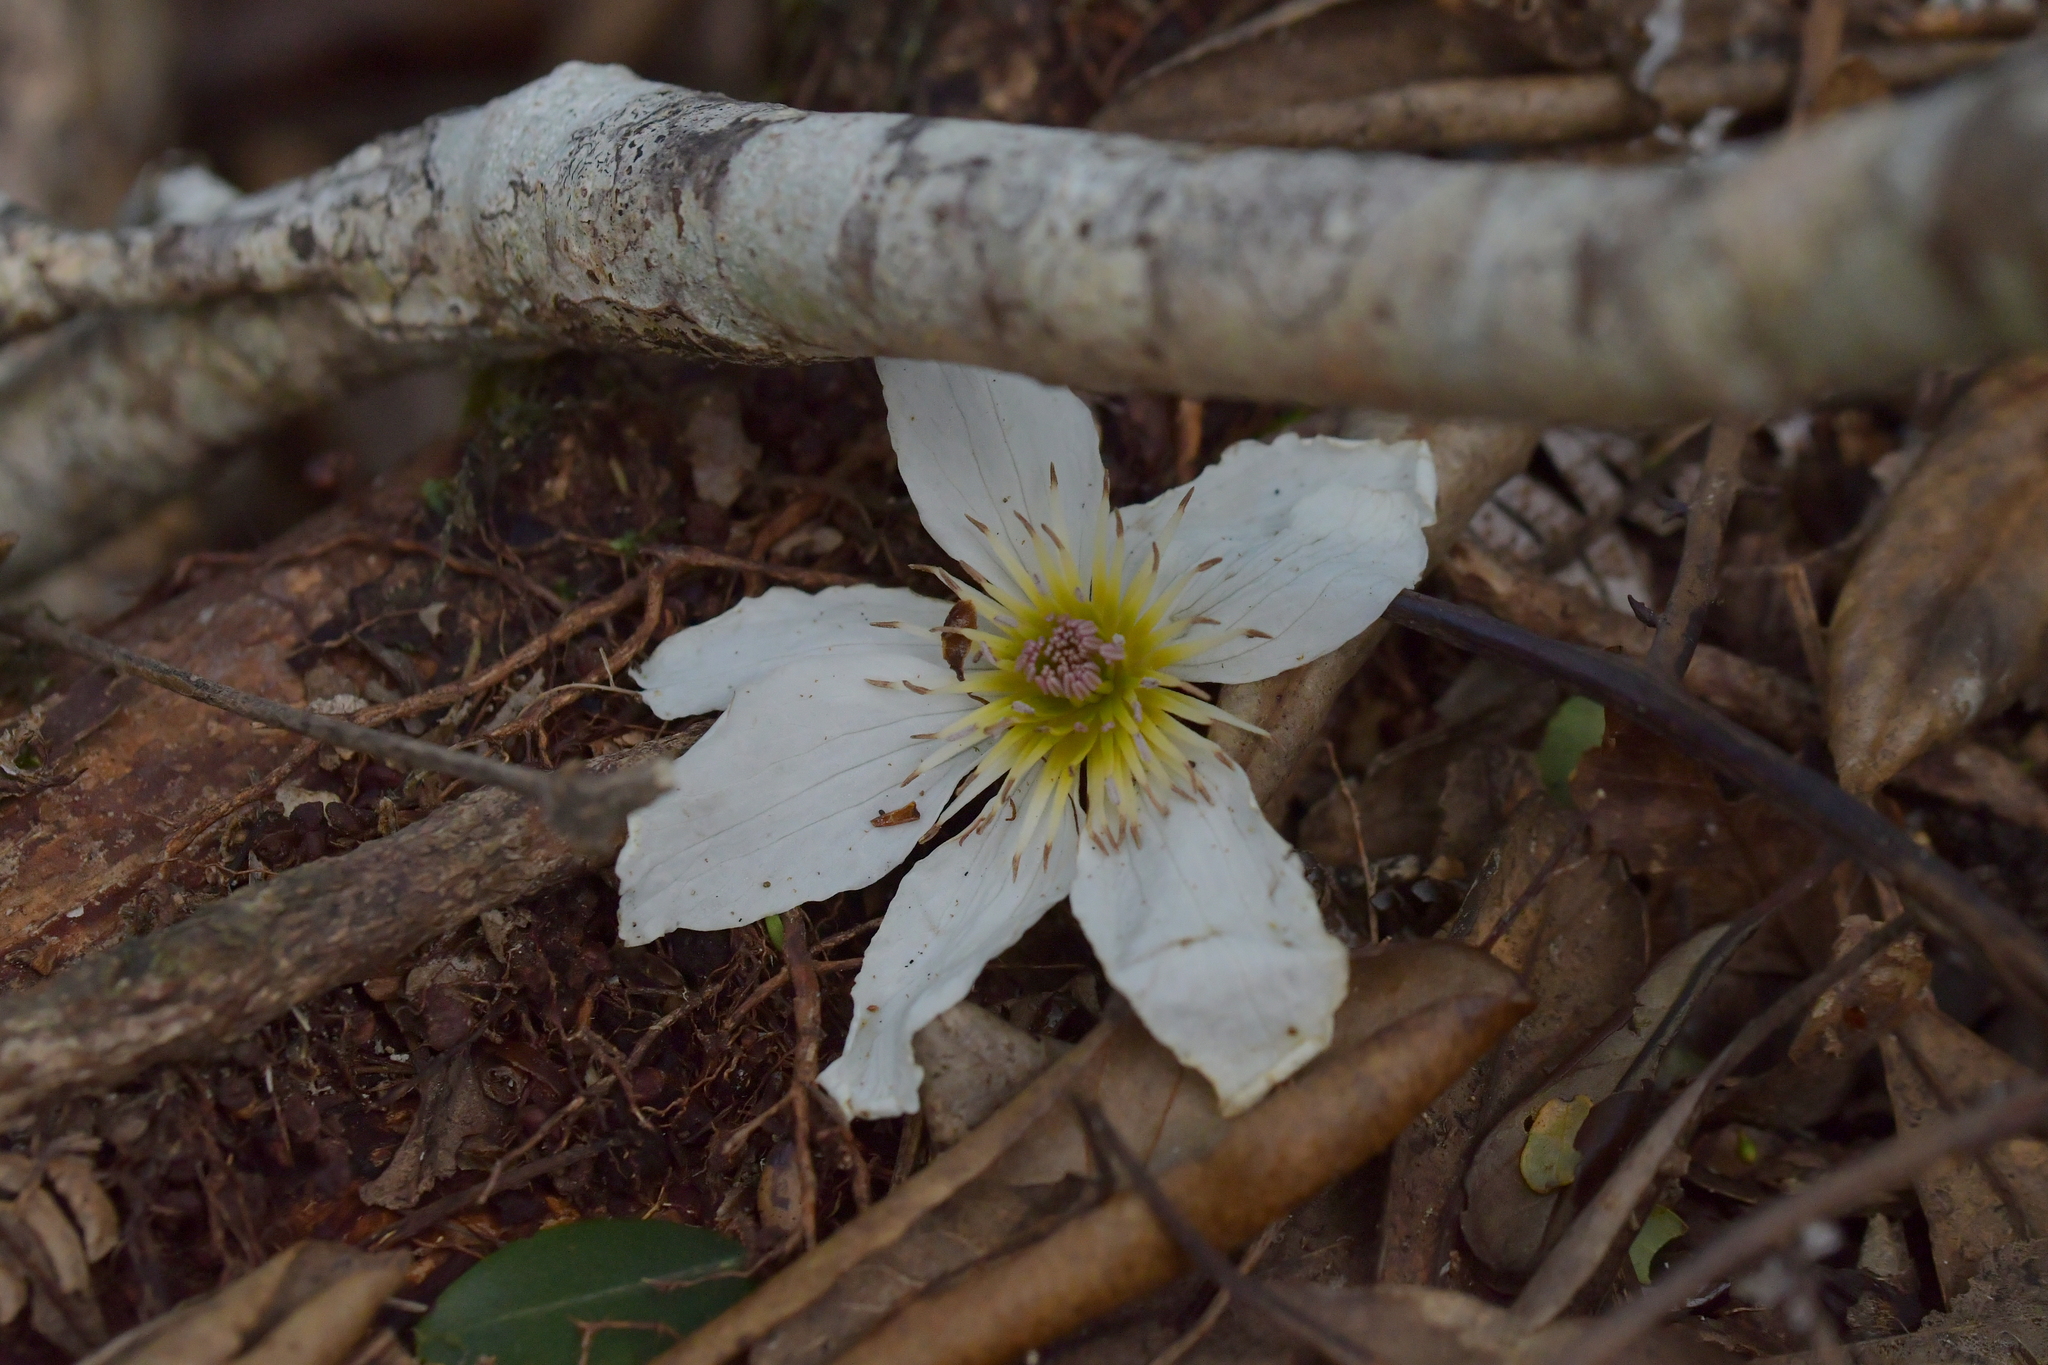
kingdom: Plantae
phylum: Tracheophyta
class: Magnoliopsida
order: Ranunculales
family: Ranunculaceae
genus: Clematis
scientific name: Clematis paniculata
